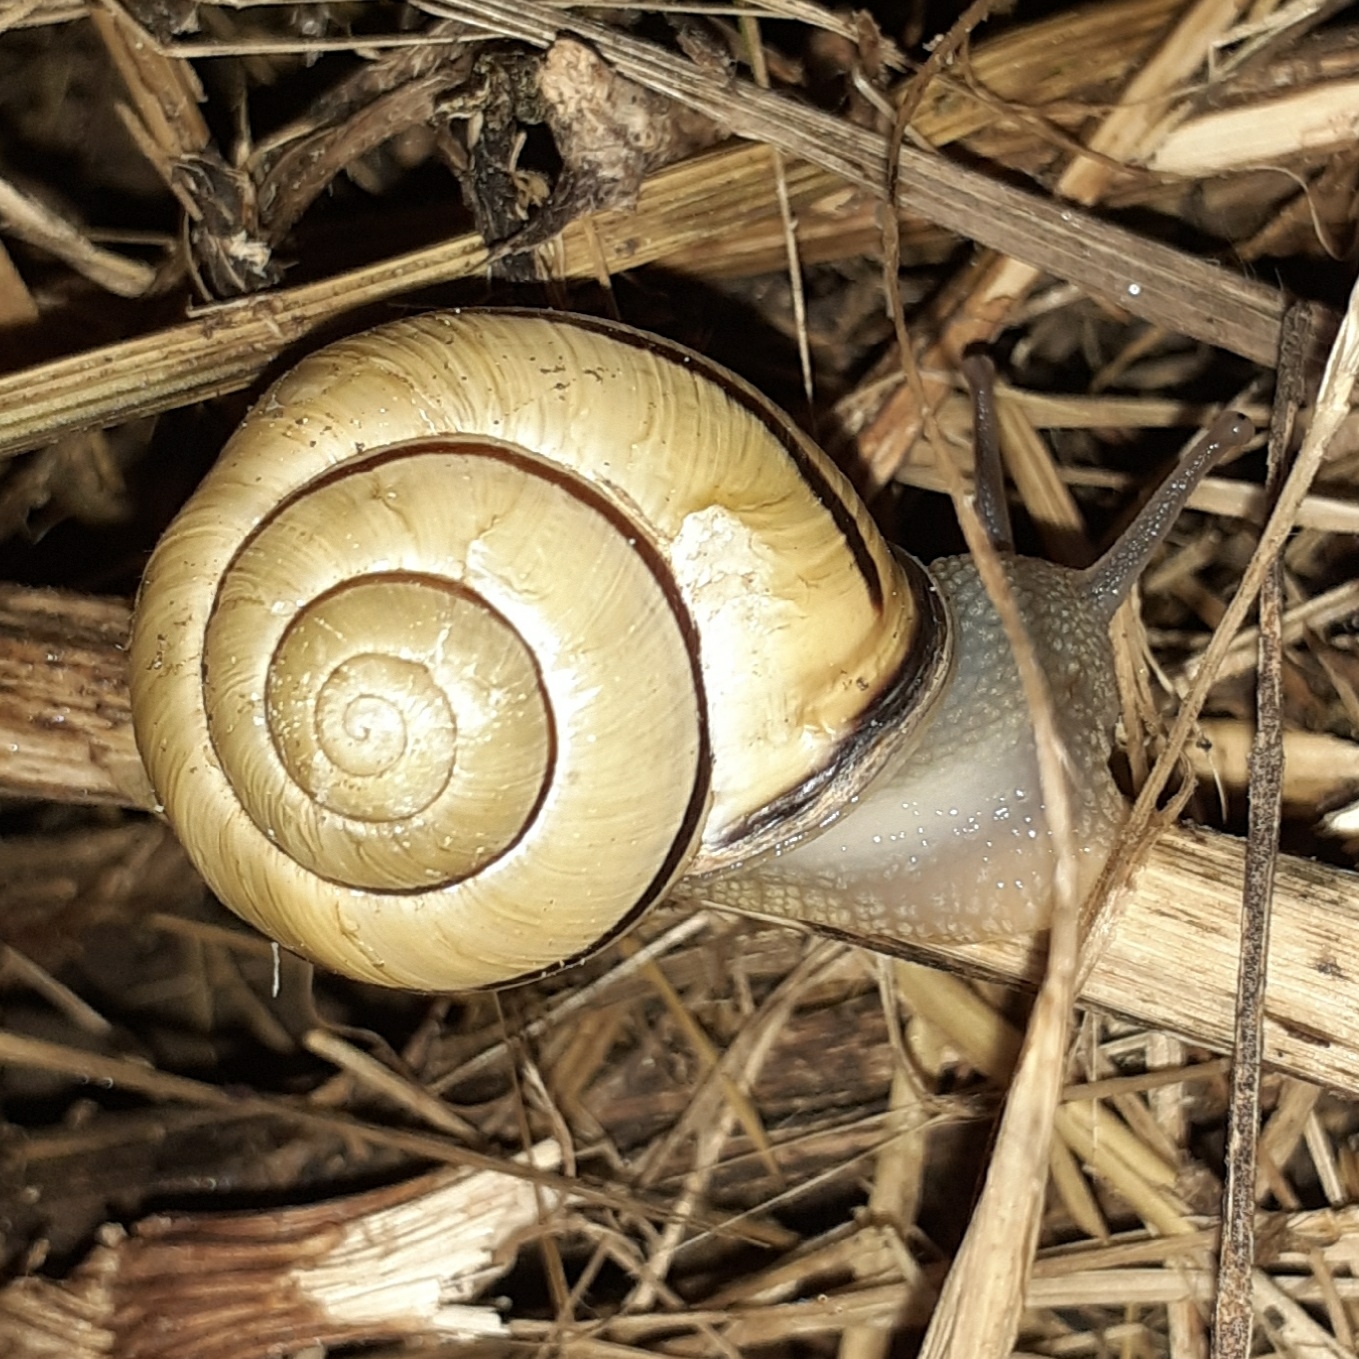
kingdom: Animalia
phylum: Mollusca
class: Gastropoda
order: Stylommatophora
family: Helicidae
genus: Cepaea
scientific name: Cepaea nemoralis
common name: Grovesnail
